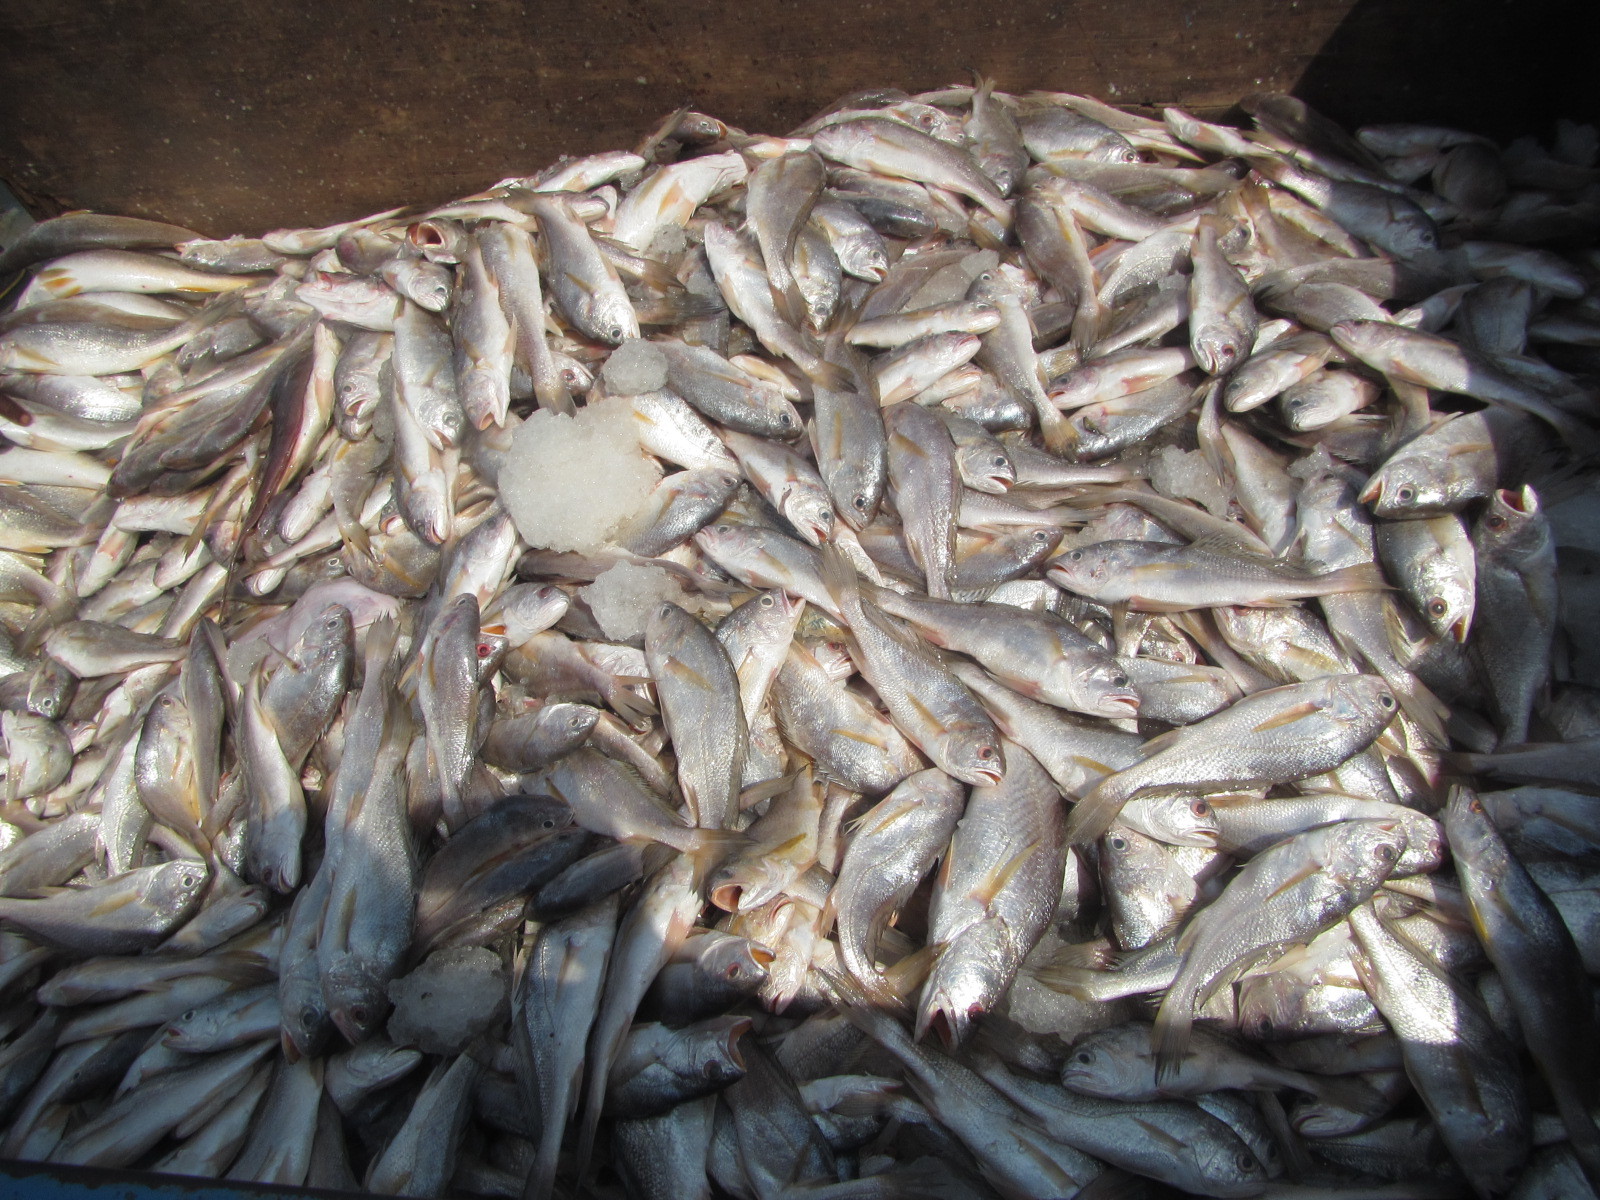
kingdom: Animalia
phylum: Chordata
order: Perciformes
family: Sciaenidae
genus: Pseudotolithus
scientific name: Pseudotolithus elongatus
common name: Bobo croaker
